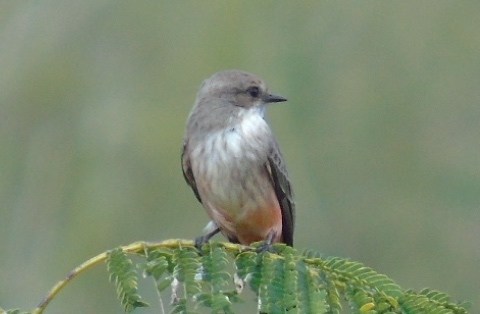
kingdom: Animalia
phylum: Chordata
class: Aves
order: Passeriformes
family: Tyrannidae
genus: Pyrocephalus
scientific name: Pyrocephalus rubinus
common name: Vermilion flycatcher
